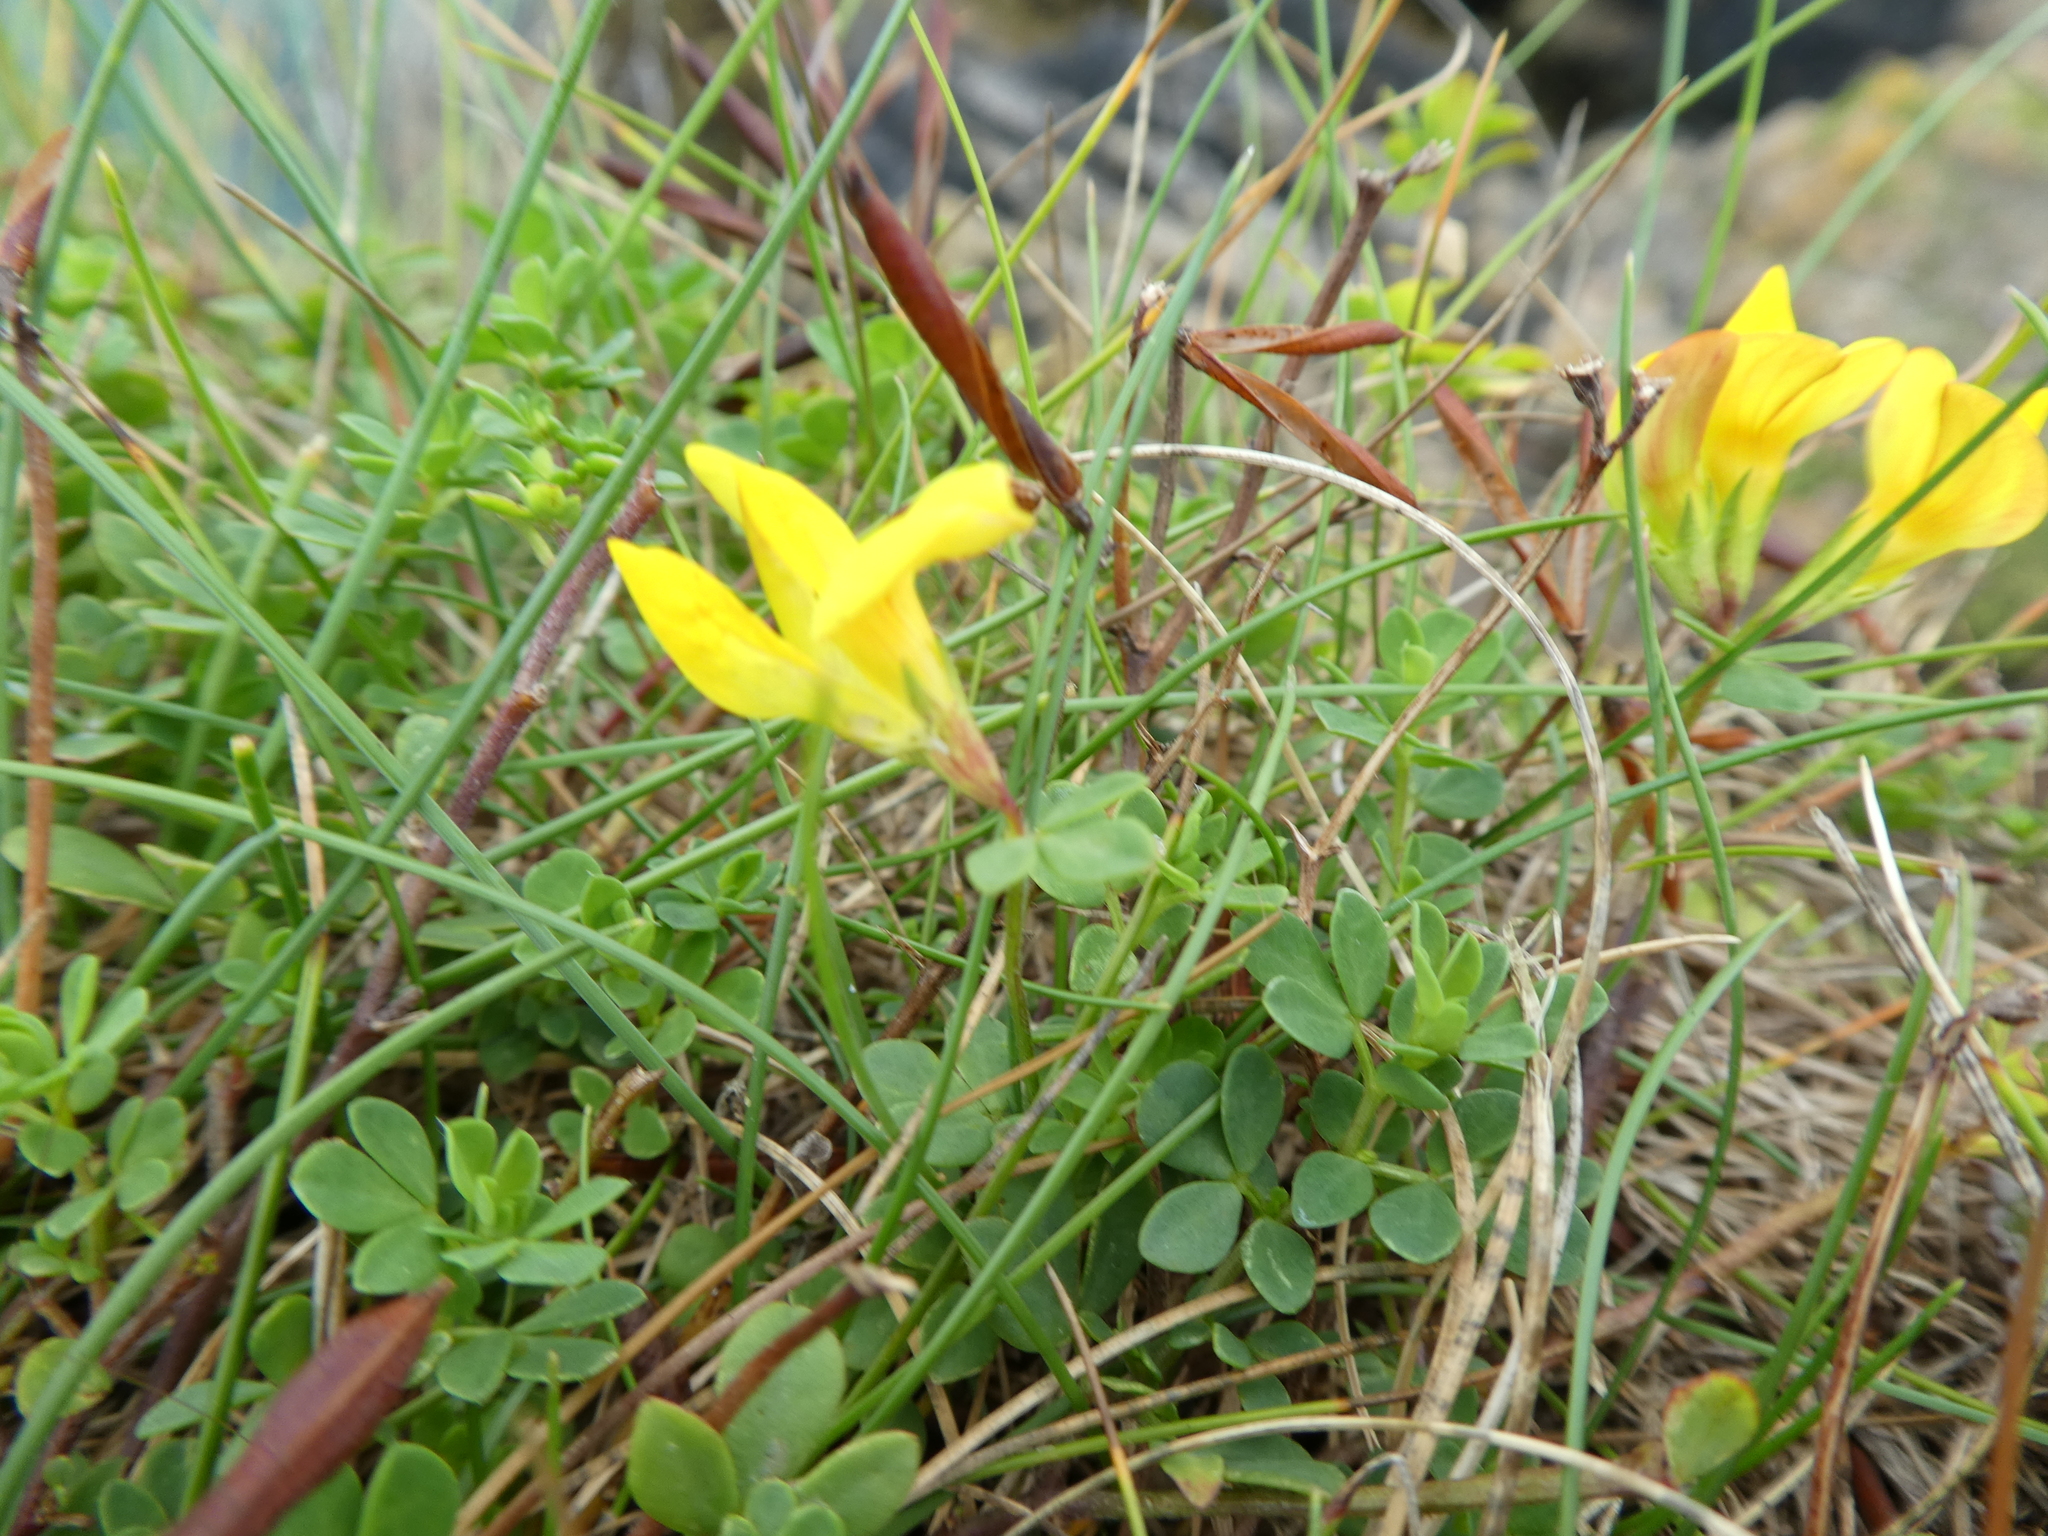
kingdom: Plantae
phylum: Tracheophyta
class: Magnoliopsida
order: Fabales
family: Fabaceae
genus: Lotus
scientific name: Lotus corniculatus
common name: Common bird's-foot-trefoil
